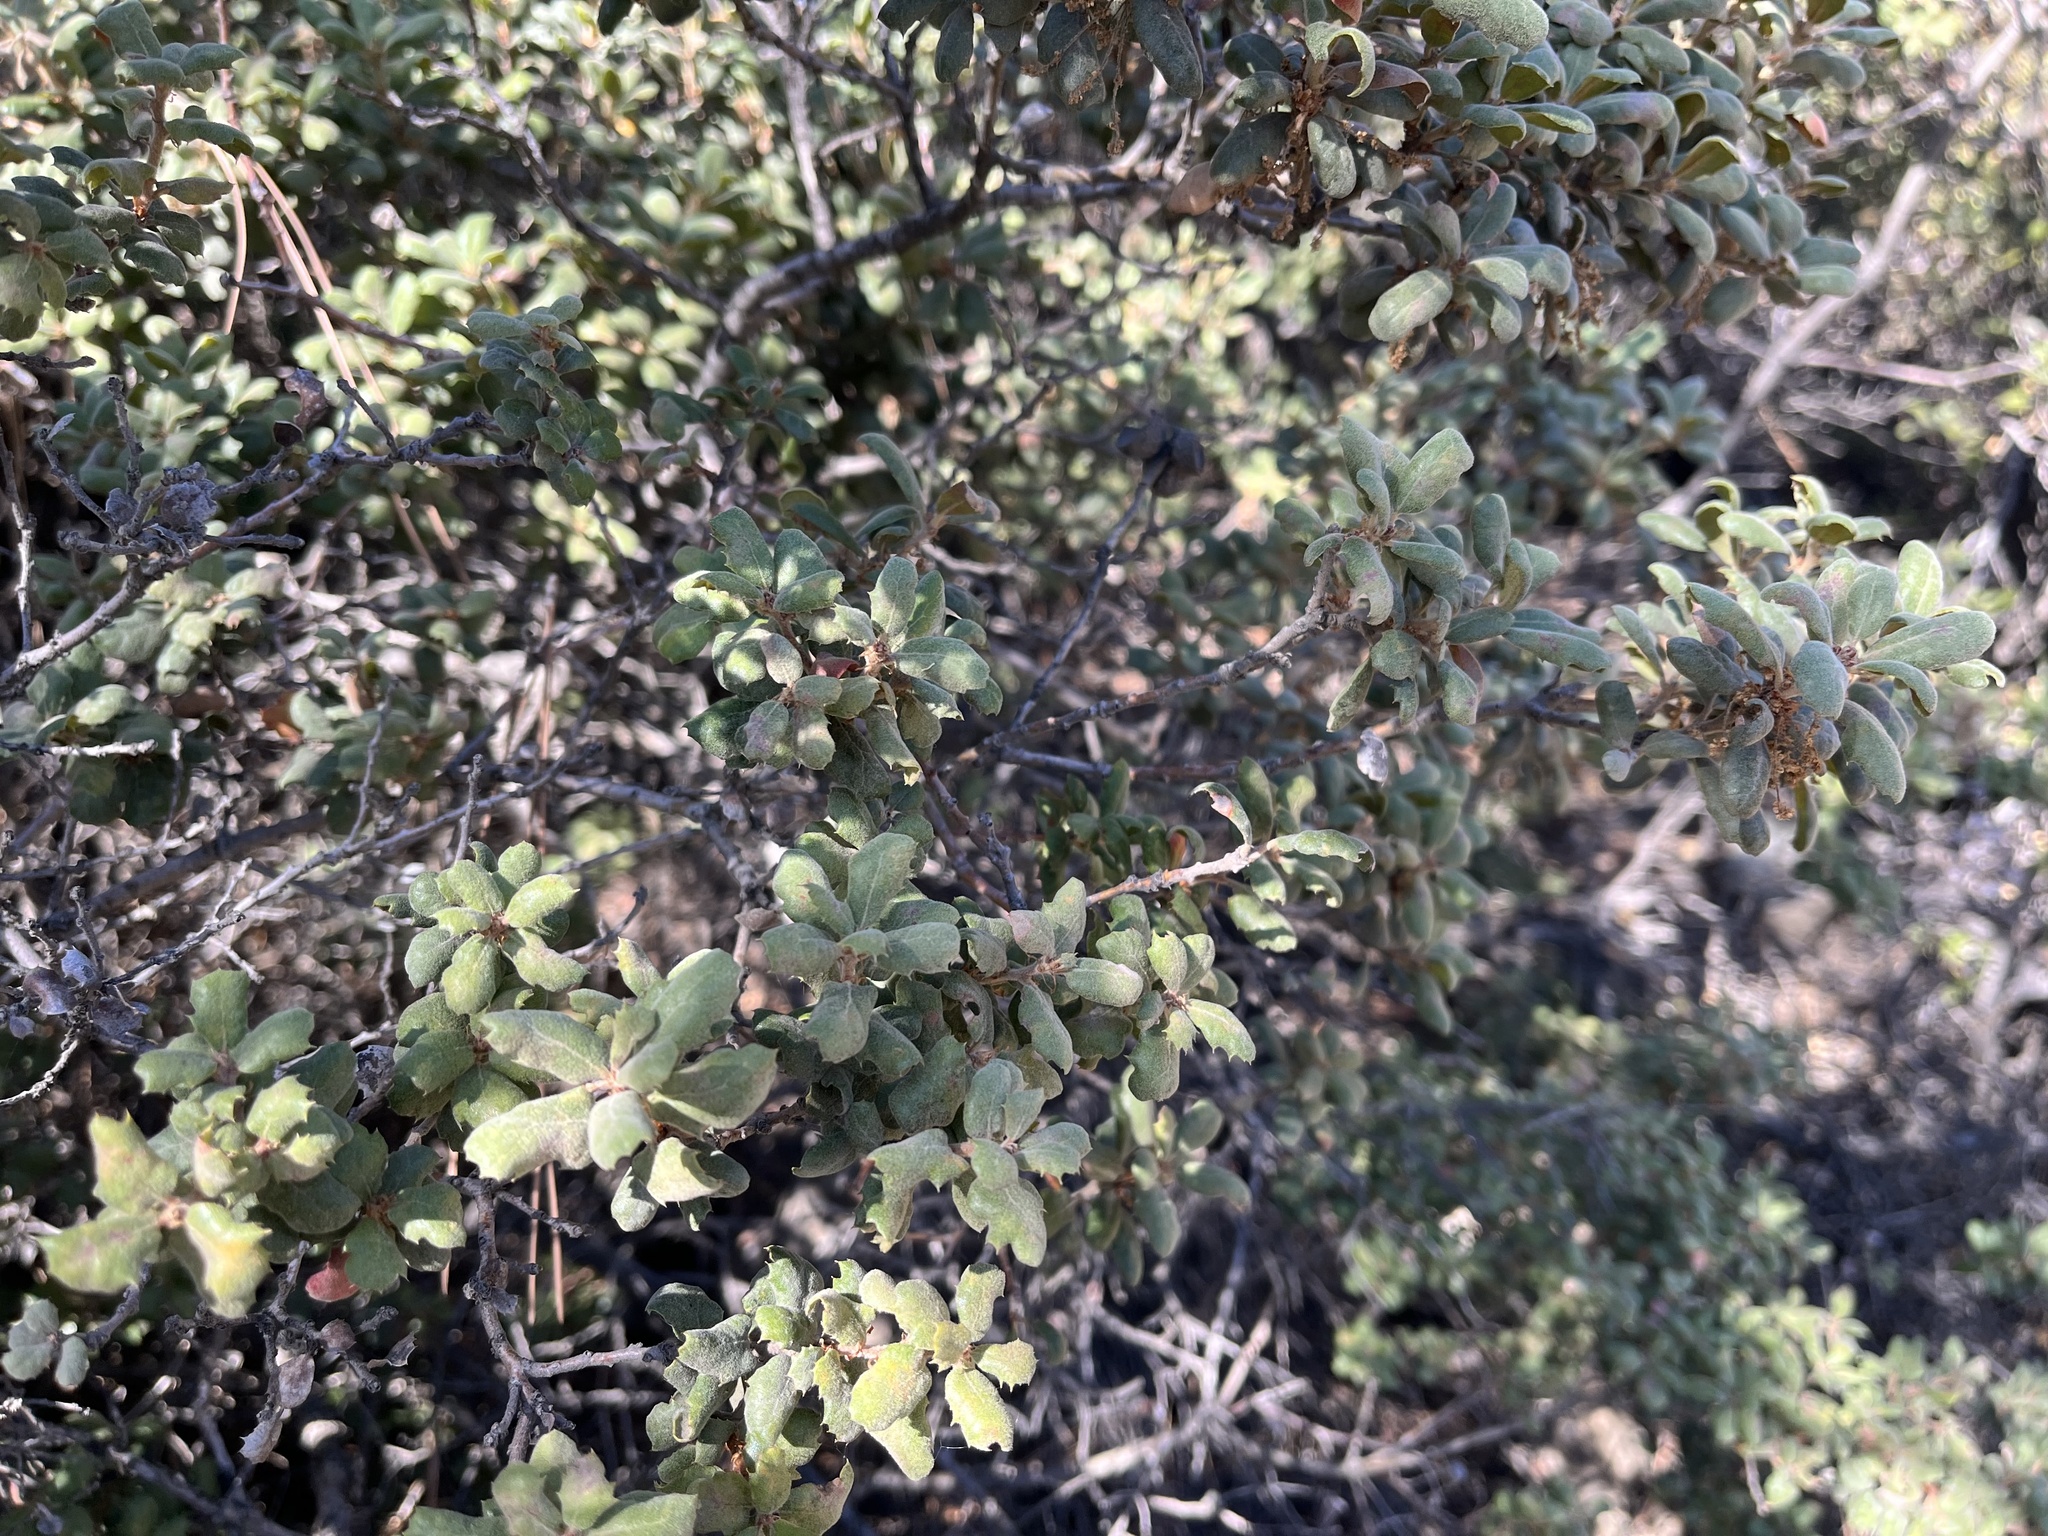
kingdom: Plantae
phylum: Tracheophyta
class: Magnoliopsida
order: Fagales
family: Fagaceae
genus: Quercus
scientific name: Quercus durata
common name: Leather oak
